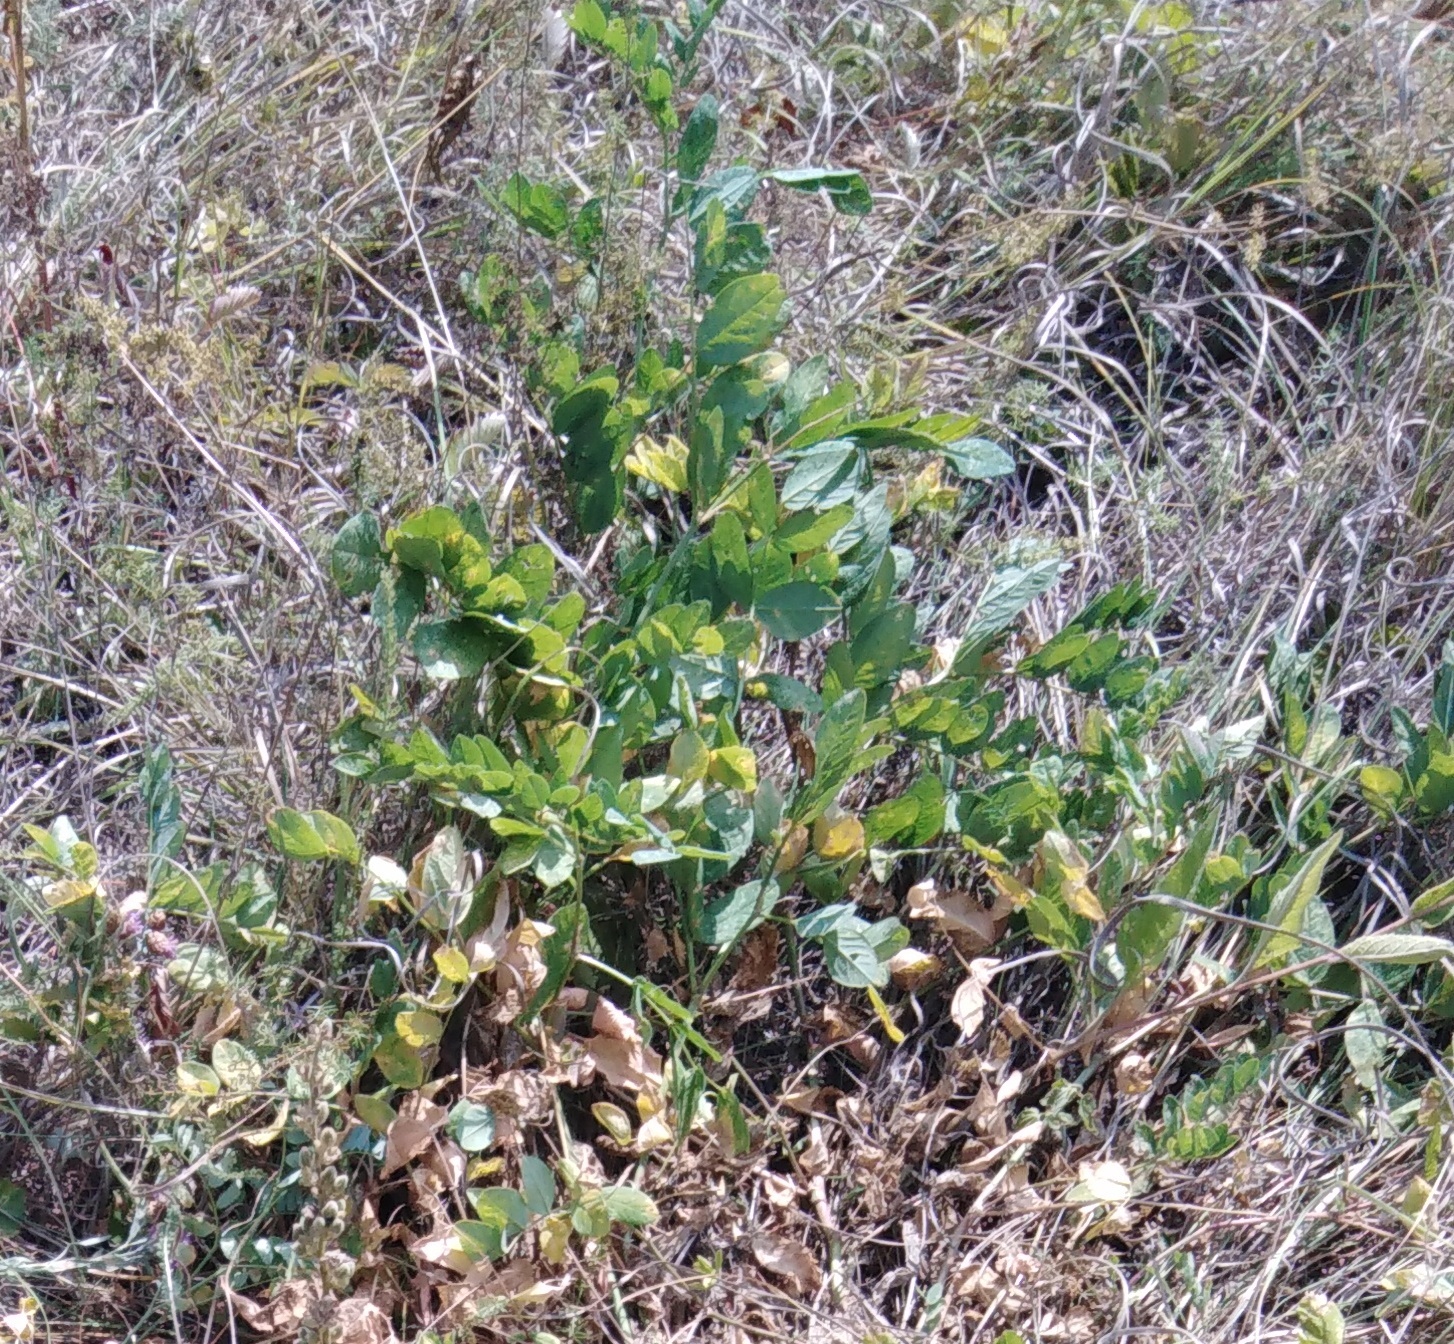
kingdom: Plantae
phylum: Tracheophyta
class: Magnoliopsida
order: Fabales
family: Fabaceae
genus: Astragalus
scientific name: Astragalus glycyphyllos
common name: Wild liquorice
